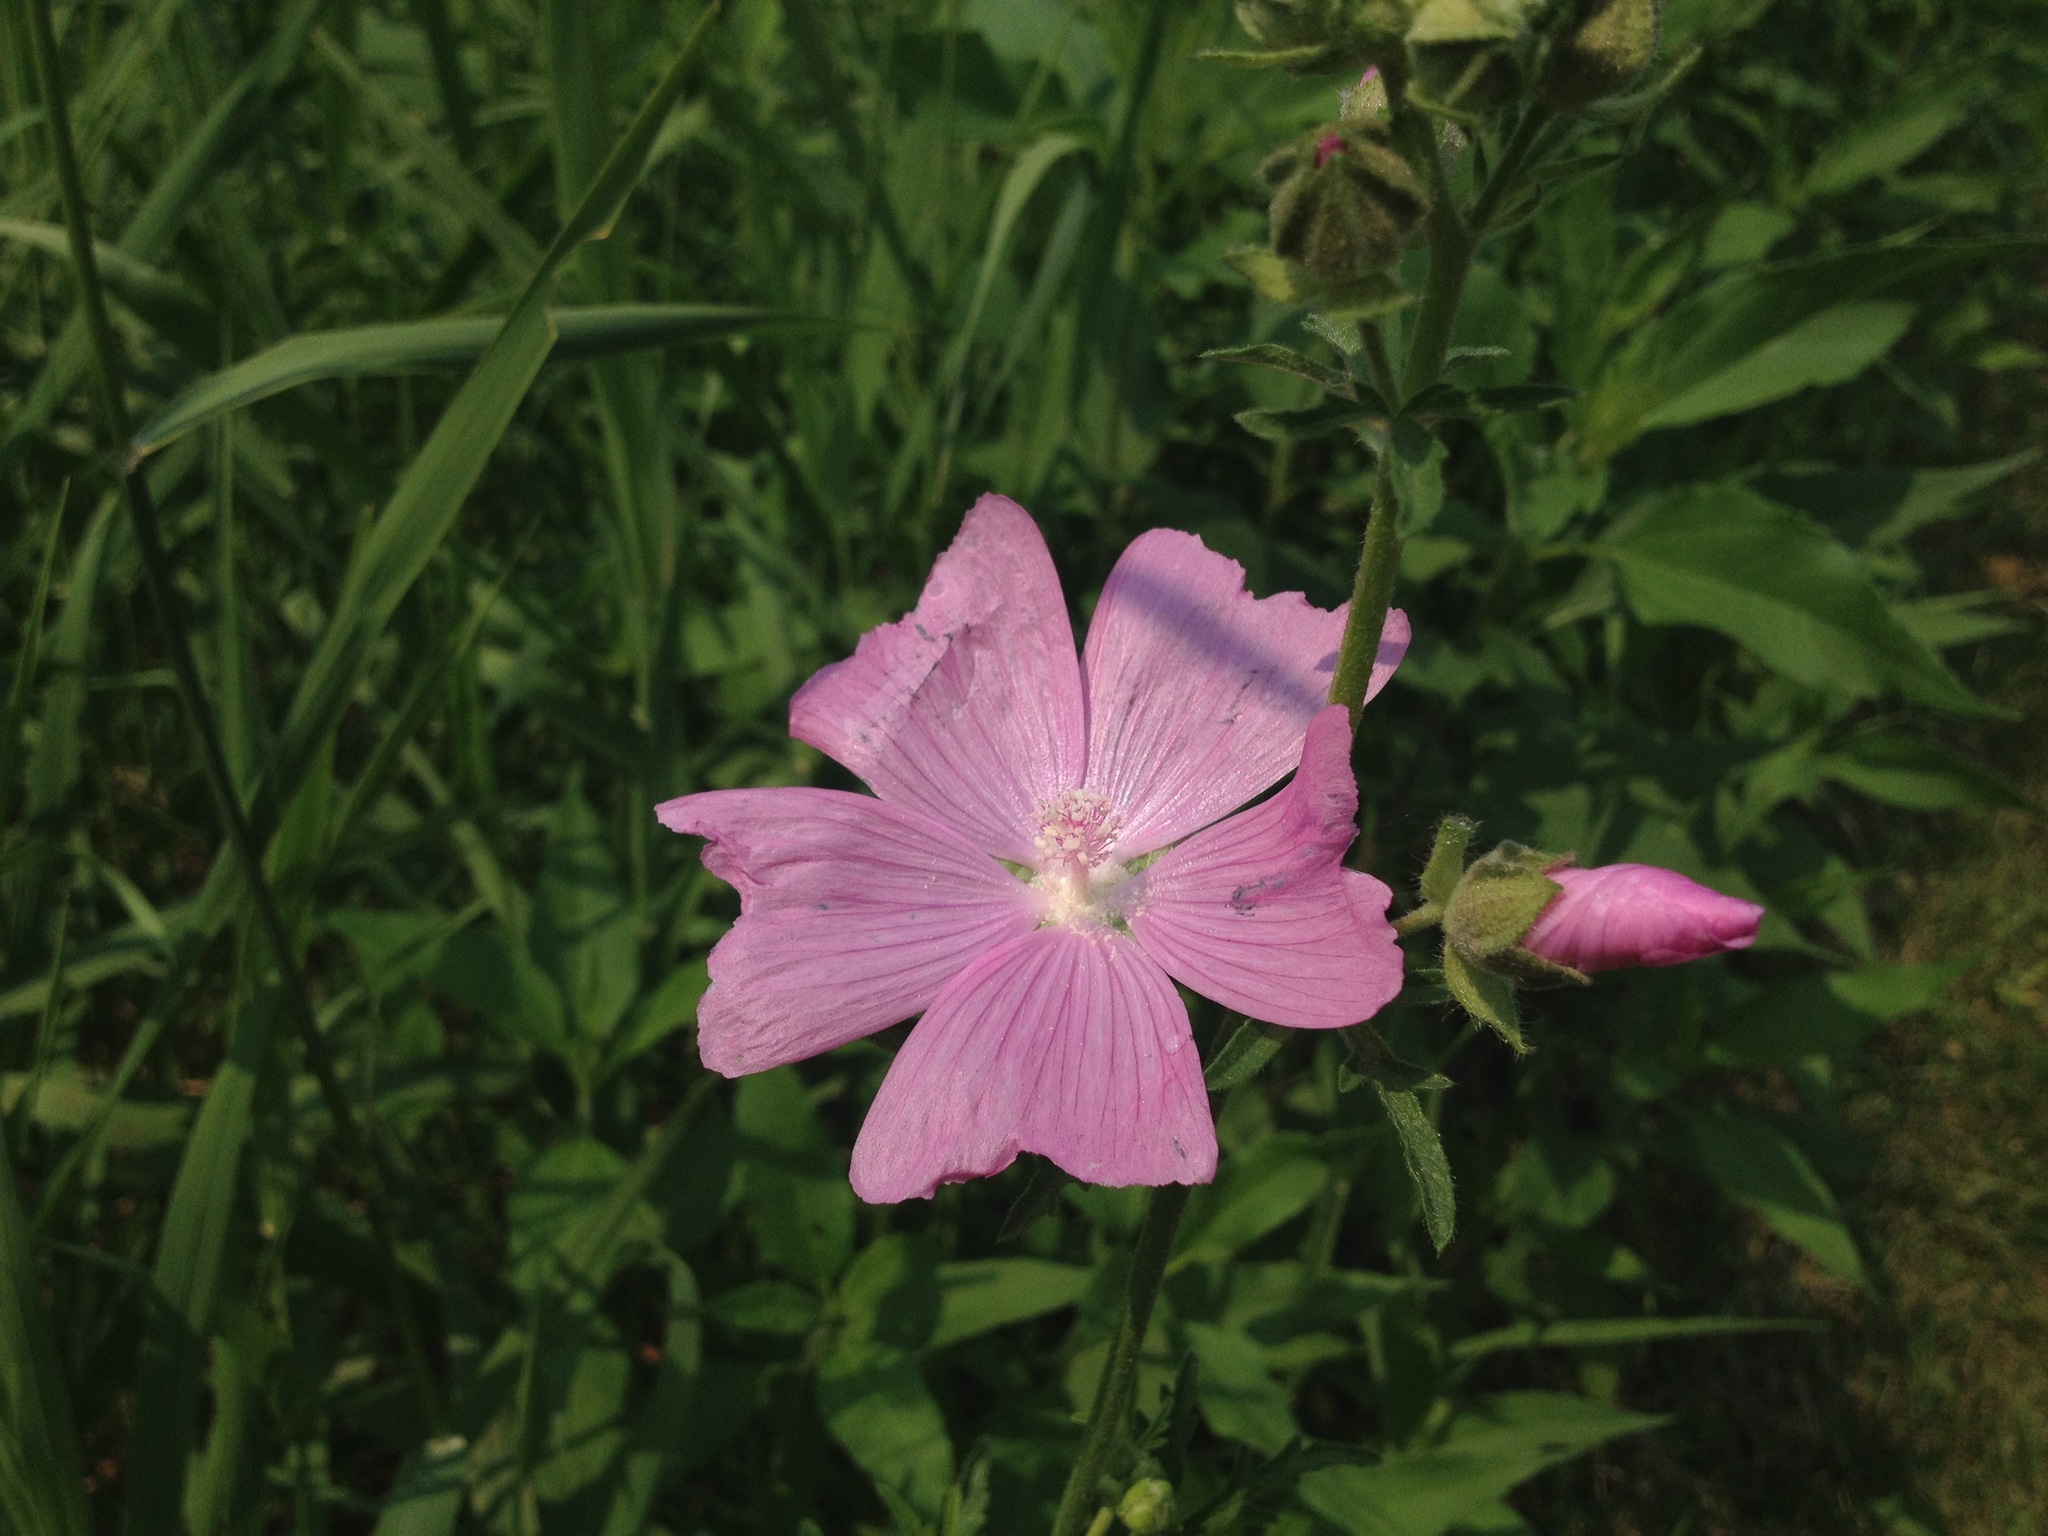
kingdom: Plantae
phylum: Tracheophyta
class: Magnoliopsida
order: Malvales
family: Malvaceae
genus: Malva
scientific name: Malva moschata
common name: Musk mallow
